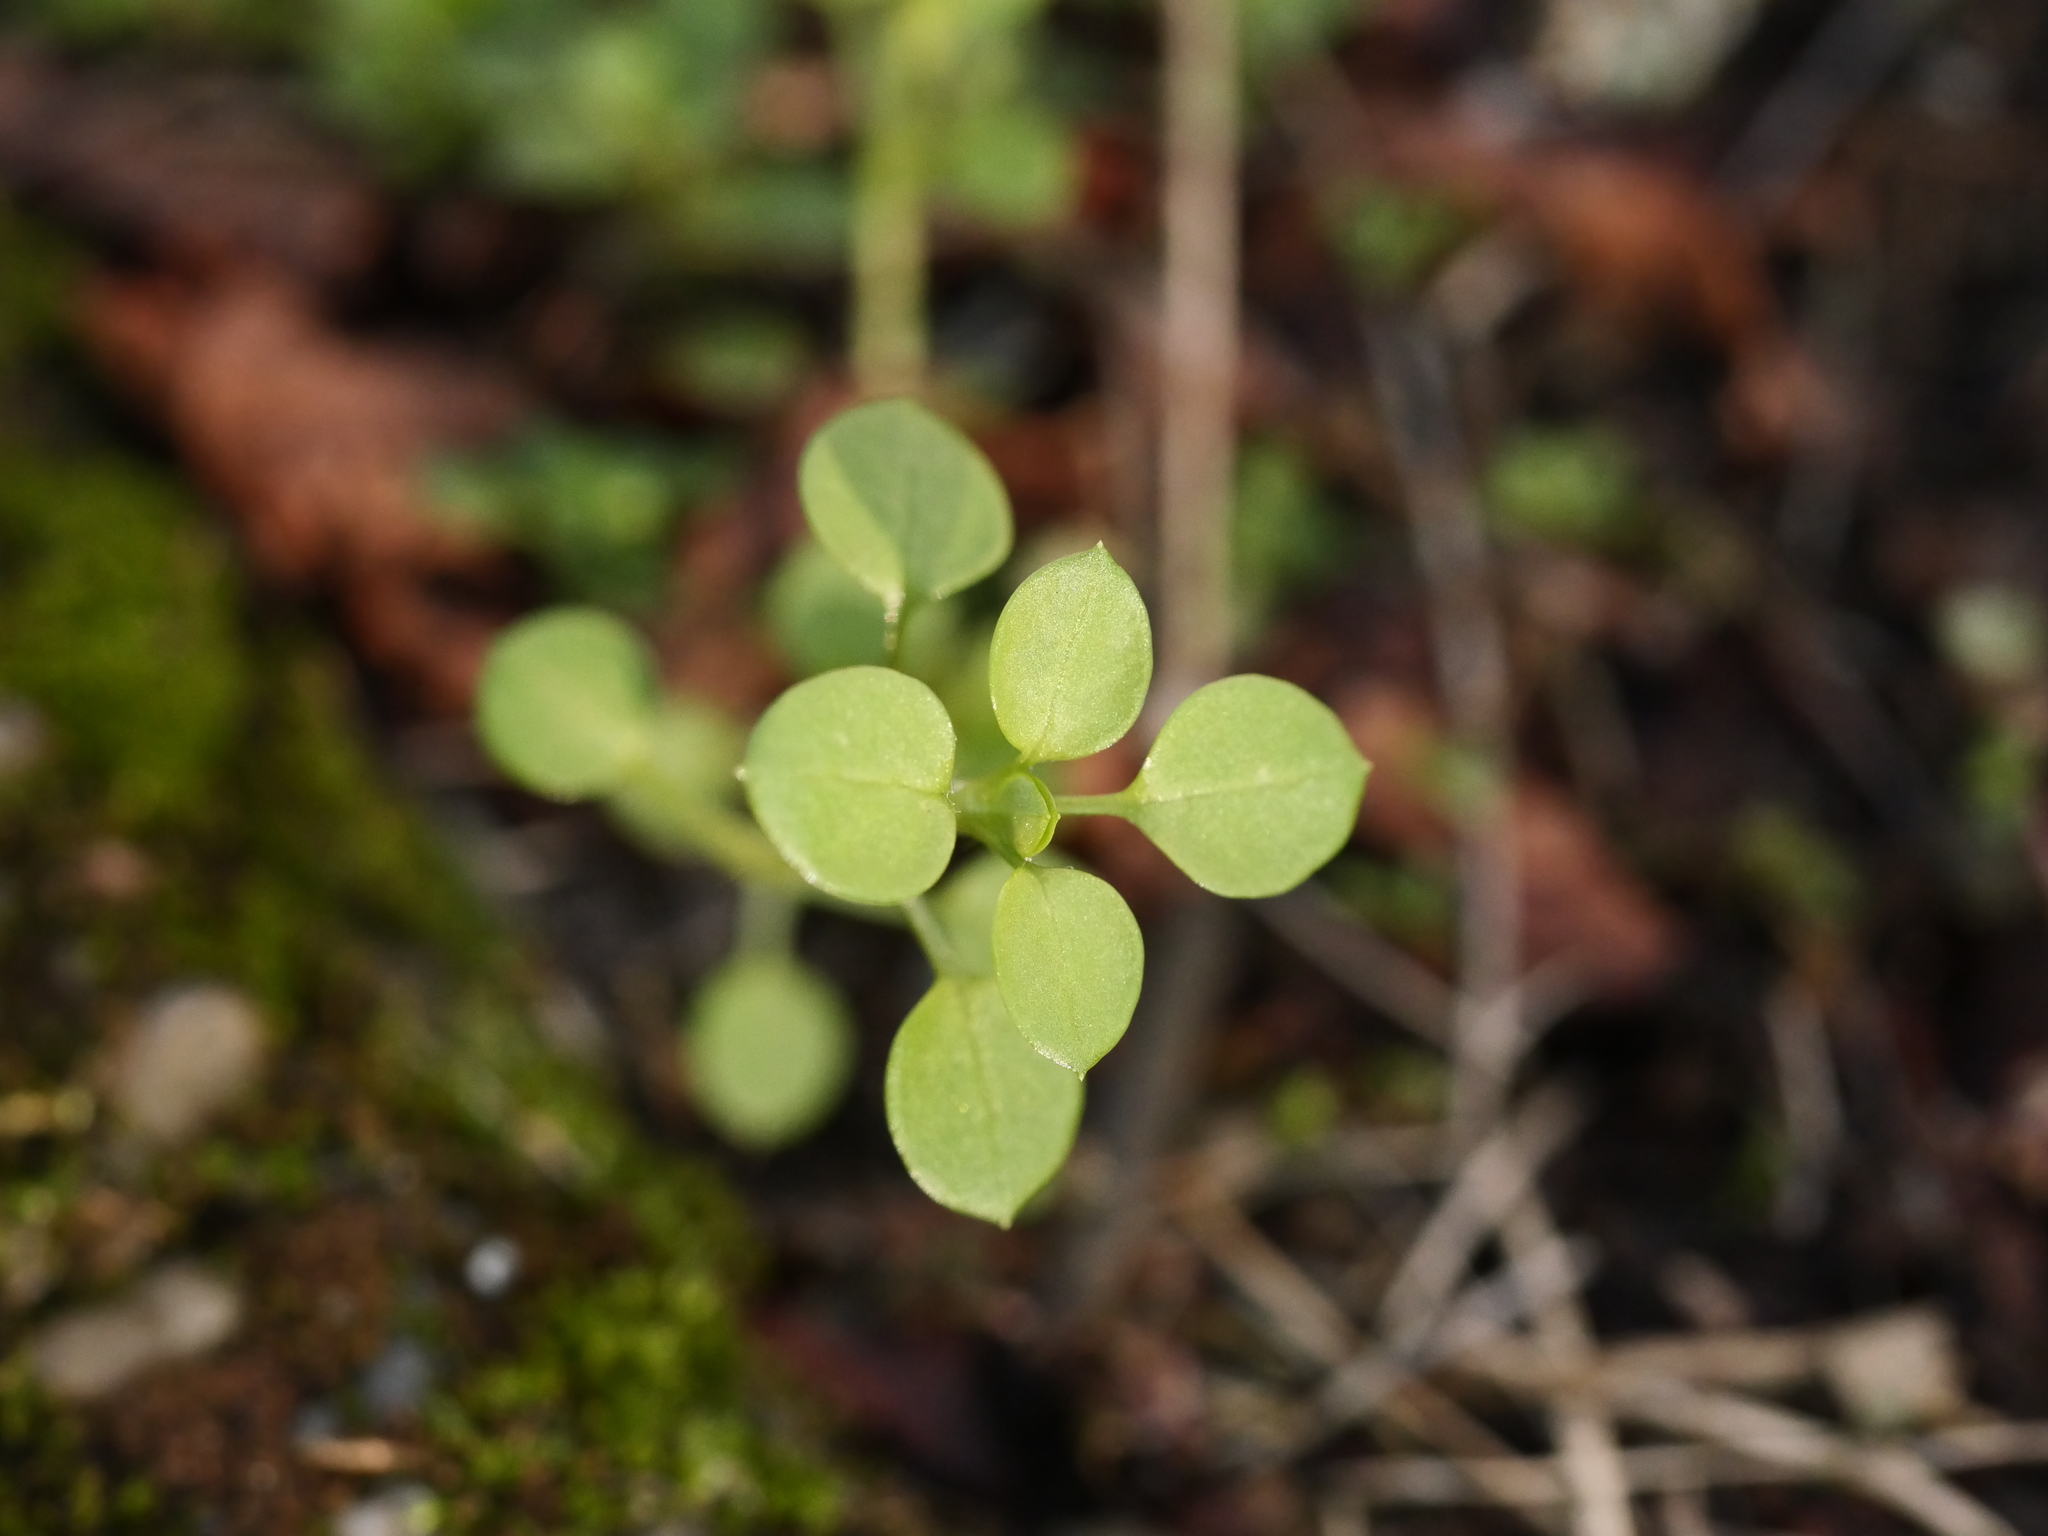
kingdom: Plantae
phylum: Tracheophyta
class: Magnoliopsida
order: Caryophyllales
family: Caryophyllaceae
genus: Stellaria
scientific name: Stellaria media
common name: Common chickweed
